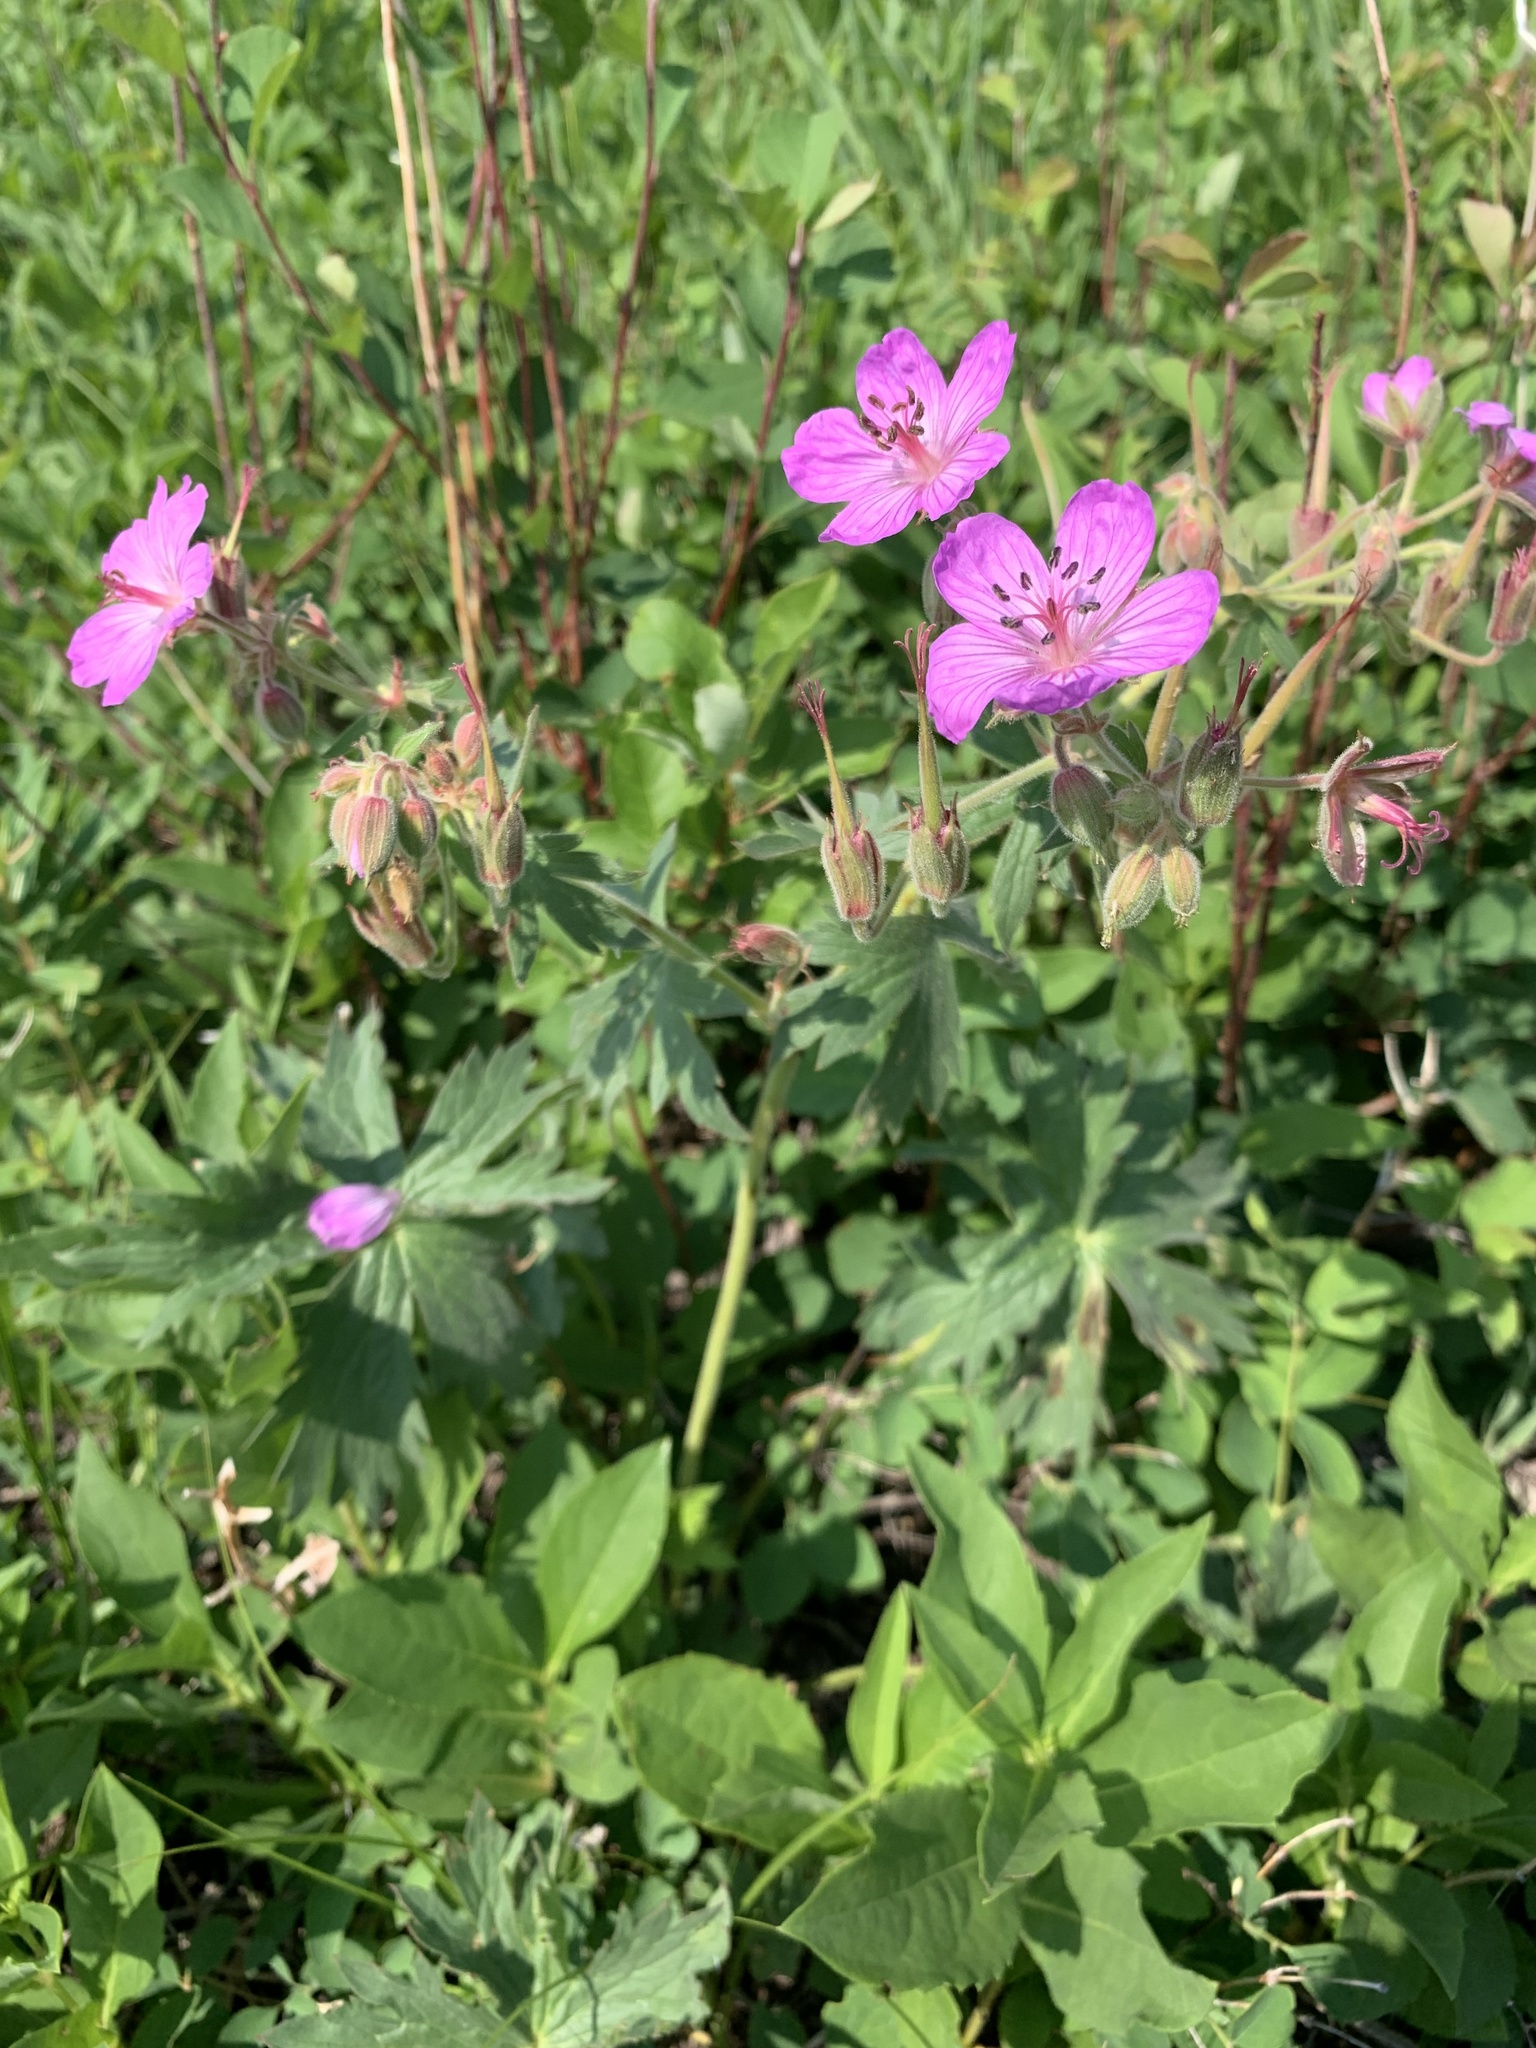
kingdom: Plantae
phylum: Tracheophyta
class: Magnoliopsida
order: Geraniales
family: Geraniaceae
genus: Geranium
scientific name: Geranium viscosissimum
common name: Purple geranium
